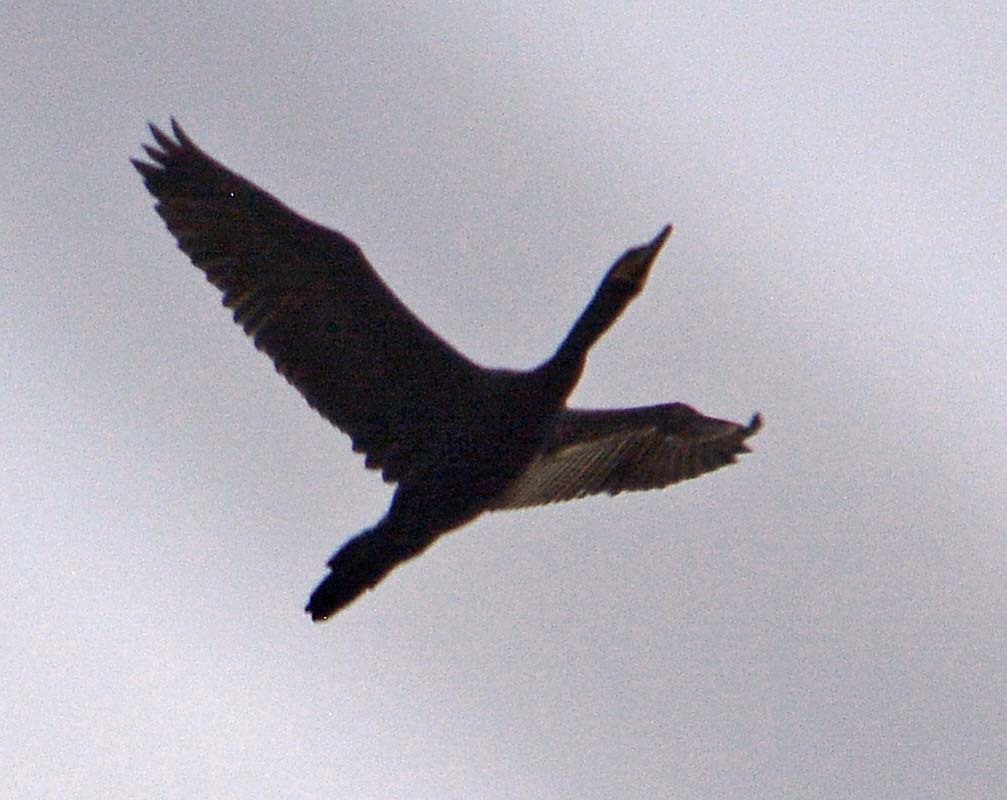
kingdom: Animalia
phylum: Chordata
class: Aves
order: Suliformes
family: Phalacrocoracidae
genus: Phalacrocorax
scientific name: Phalacrocorax brasilianus
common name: Neotropic cormorant
